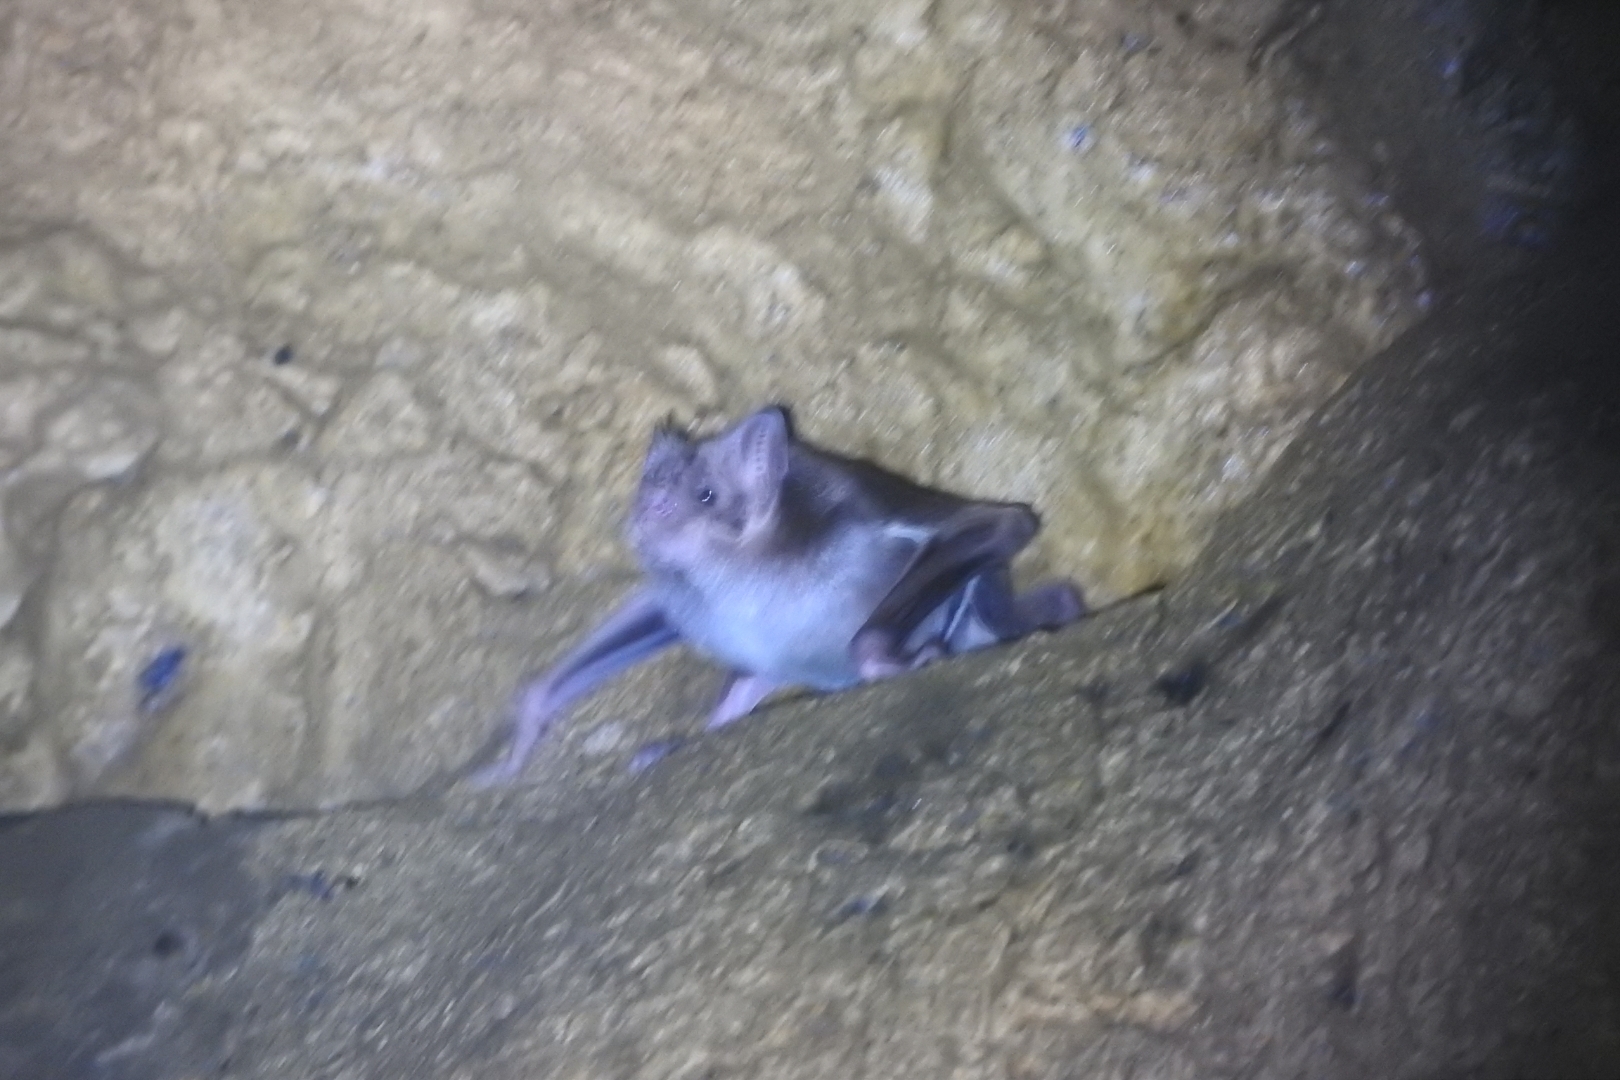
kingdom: Animalia
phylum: Chordata
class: Mammalia
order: Chiroptera
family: Phyllostomidae
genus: Desmodus
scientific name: Desmodus rotundus
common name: Common vampire bat
